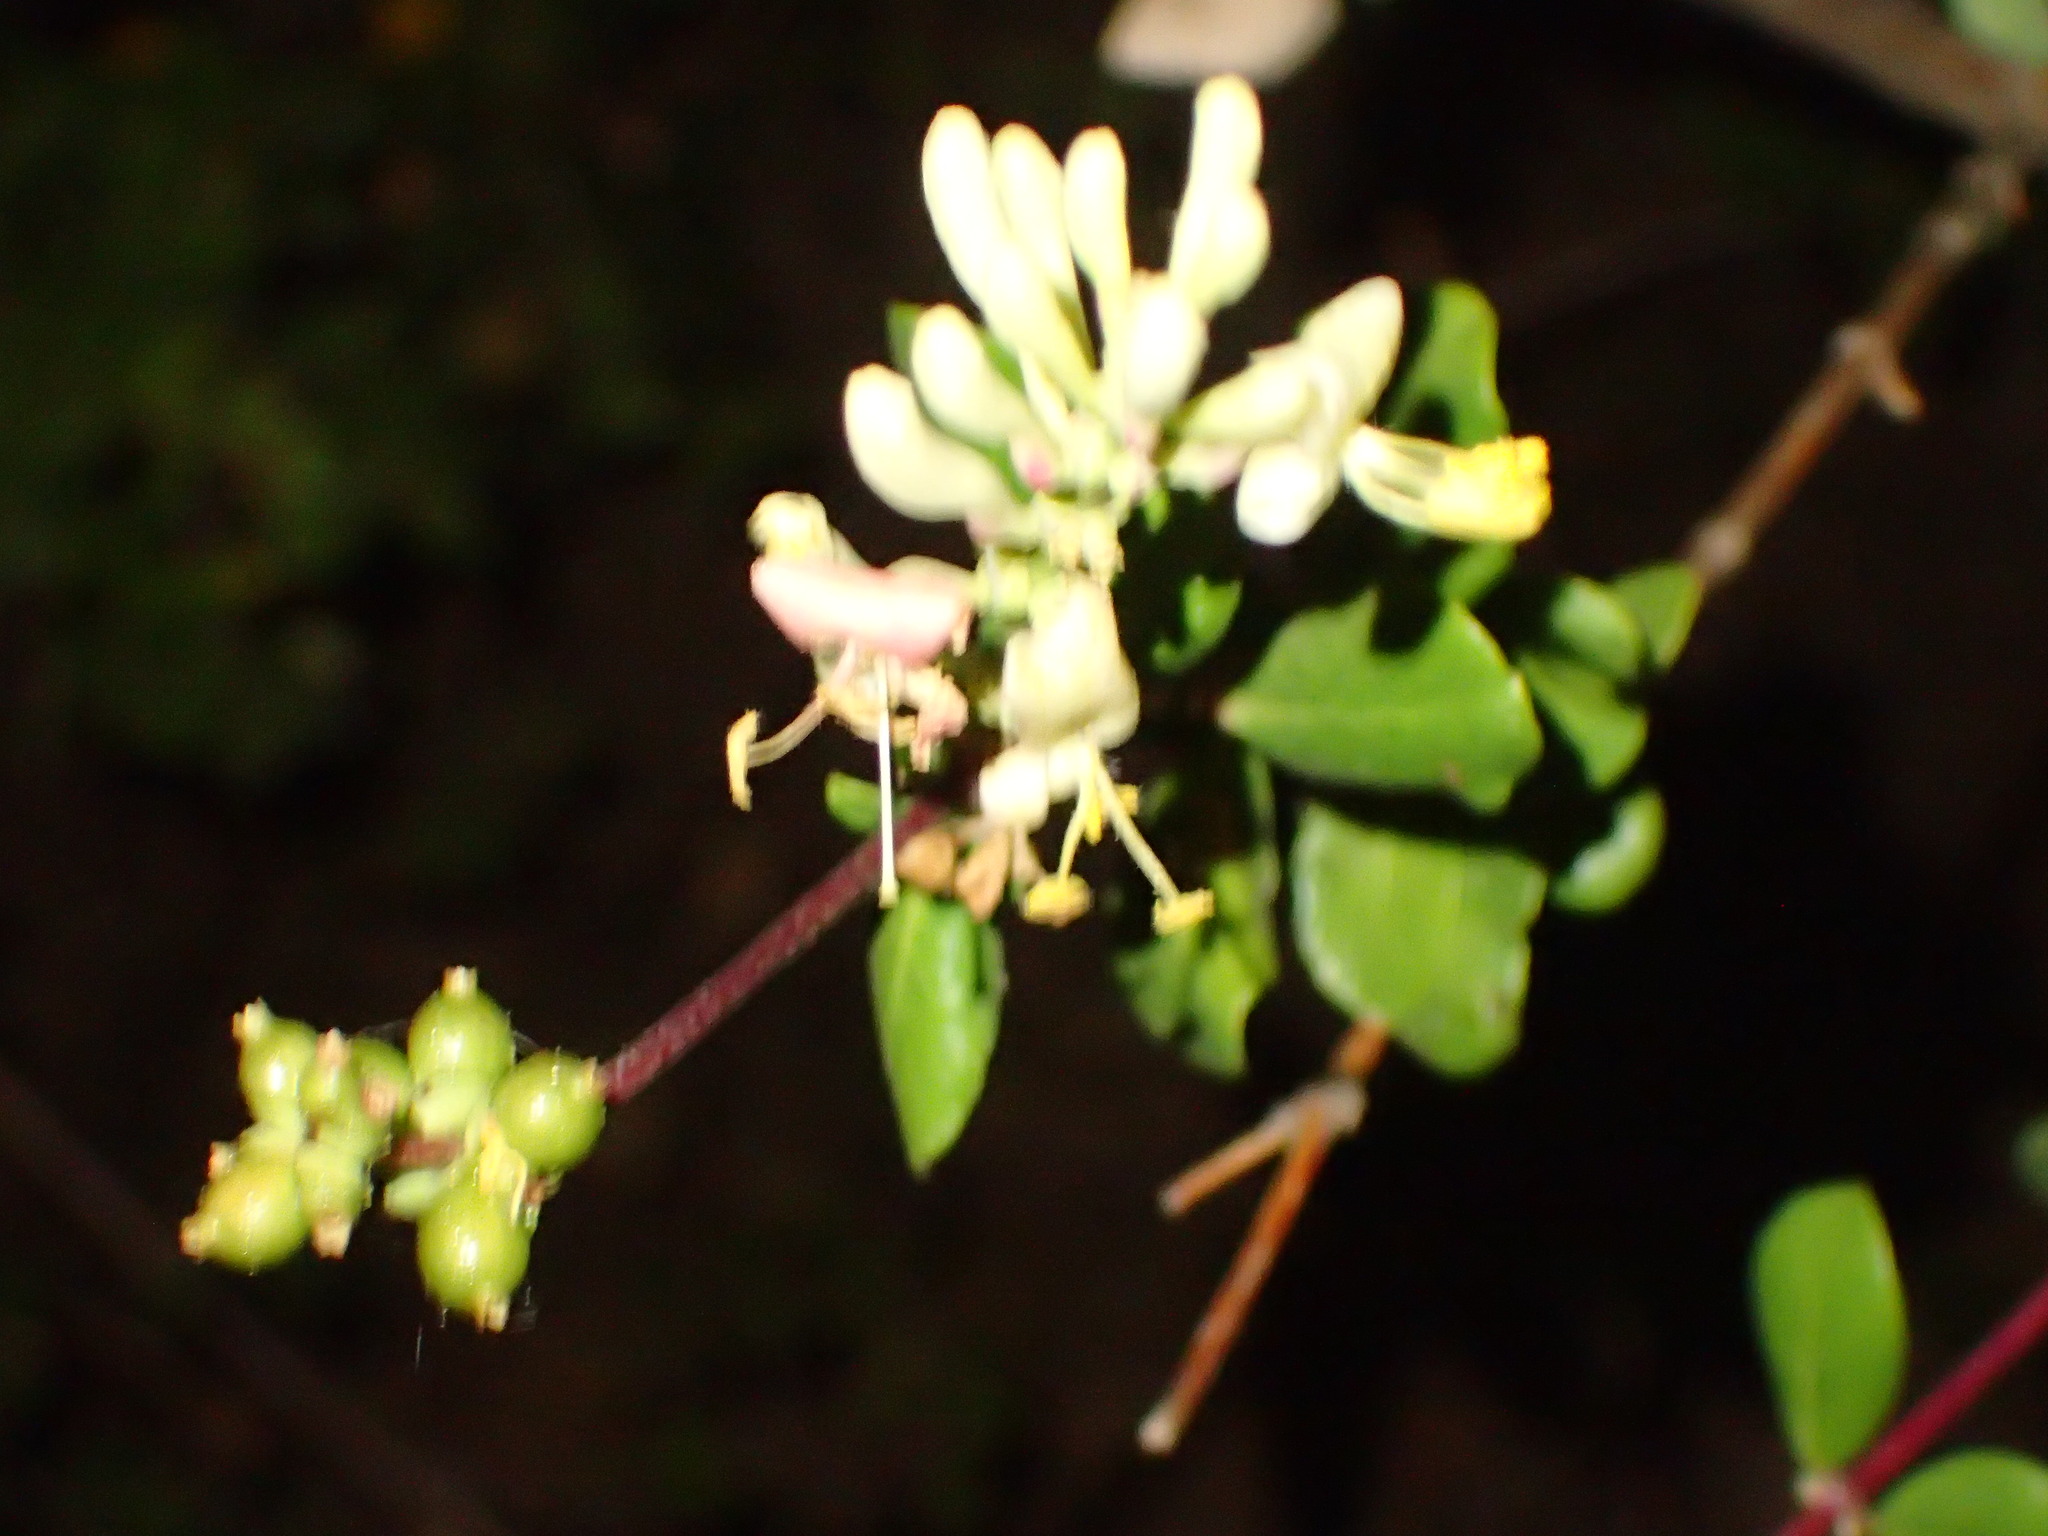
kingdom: Plantae
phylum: Tracheophyta
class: Magnoliopsida
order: Dipsacales
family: Caprifoliaceae
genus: Lonicera
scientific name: Lonicera subspicata
